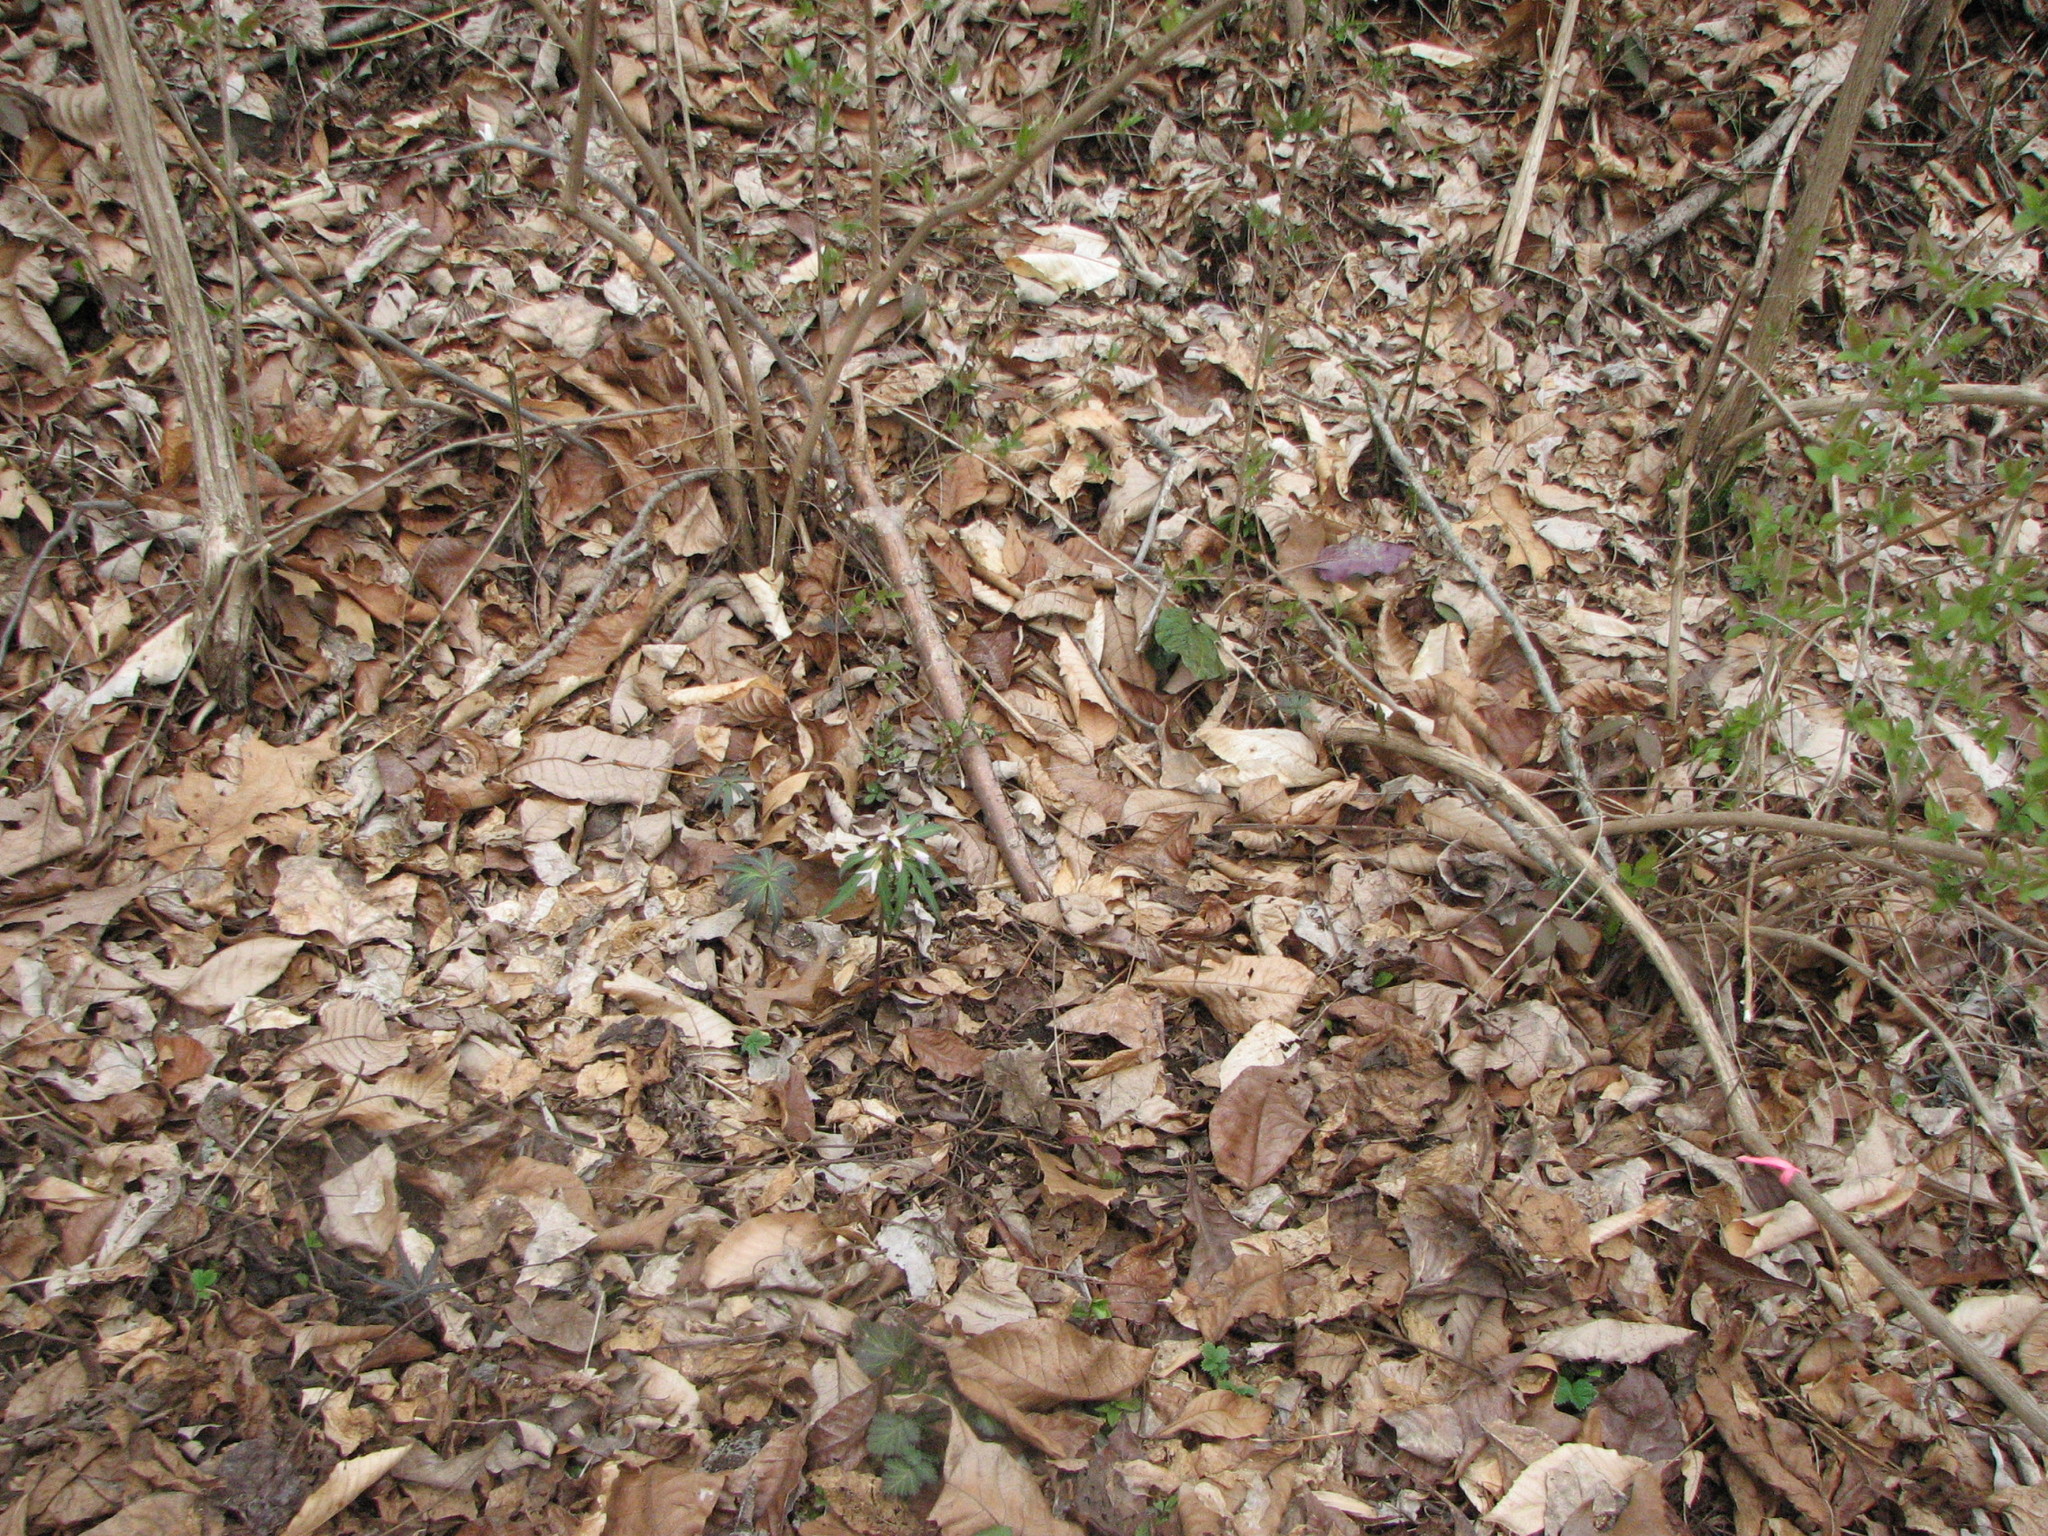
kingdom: Plantae
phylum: Tracheophyta
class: Liliopsida
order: Asparagales
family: Orchidaceae
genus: Tipularia
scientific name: Tipularia discolor
